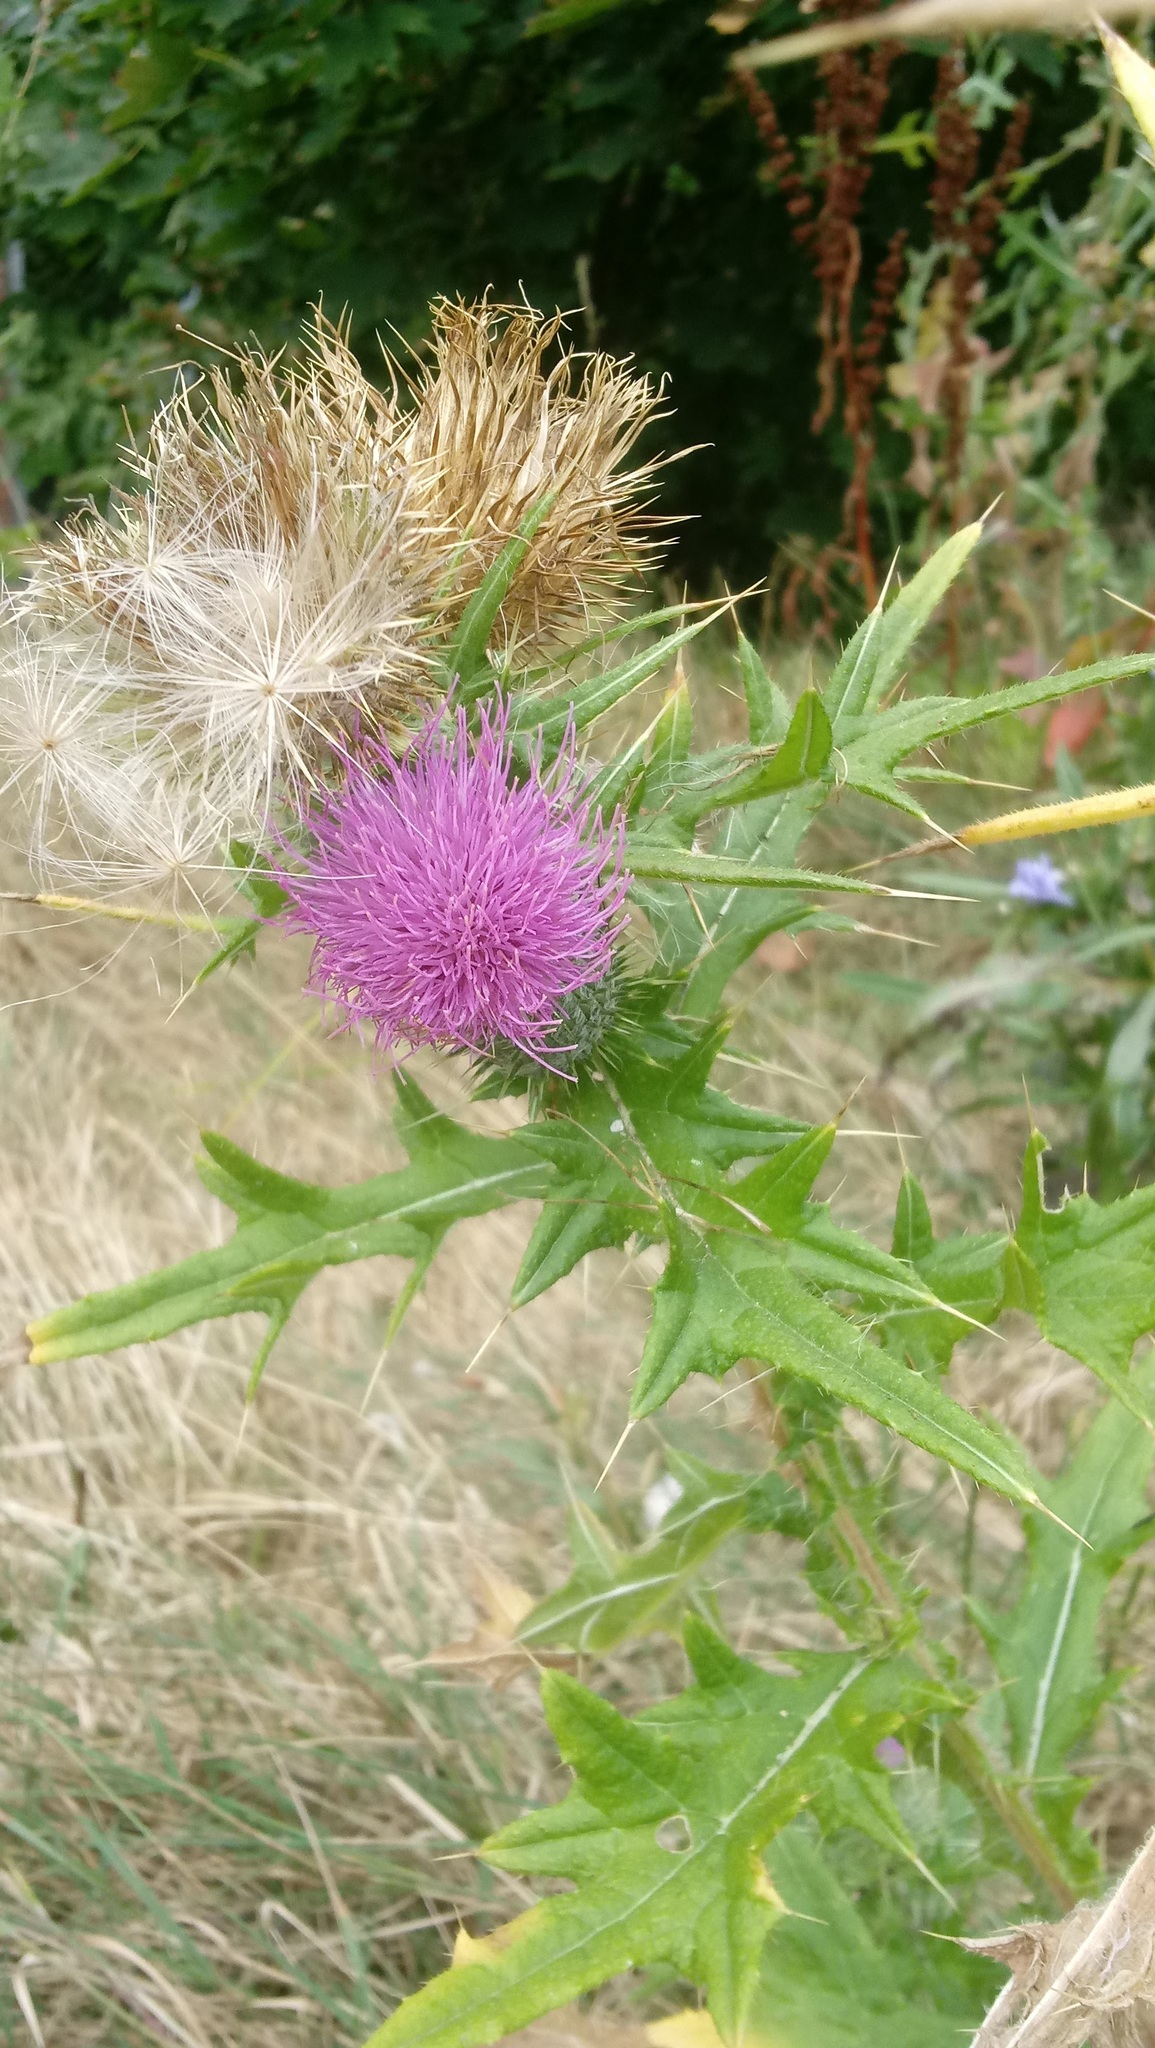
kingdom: Plantae
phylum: Tracheophyta
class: Magnoliopsida
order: Asterales
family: Asteraceae
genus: Cirsium
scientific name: Cirsium vulgare
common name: Bull thistle
